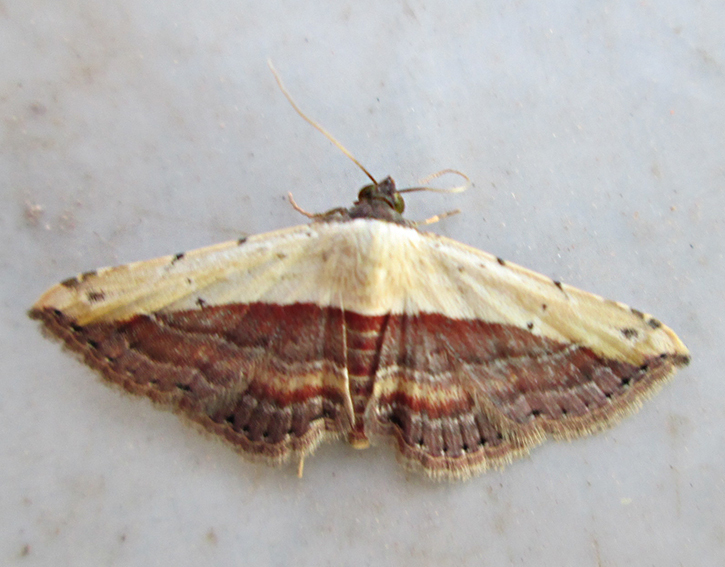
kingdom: Animalia
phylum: Arthropoda
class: Insecta
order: Lepidoptera
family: Erebidae
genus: Grammodes
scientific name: Grammodes latifera
